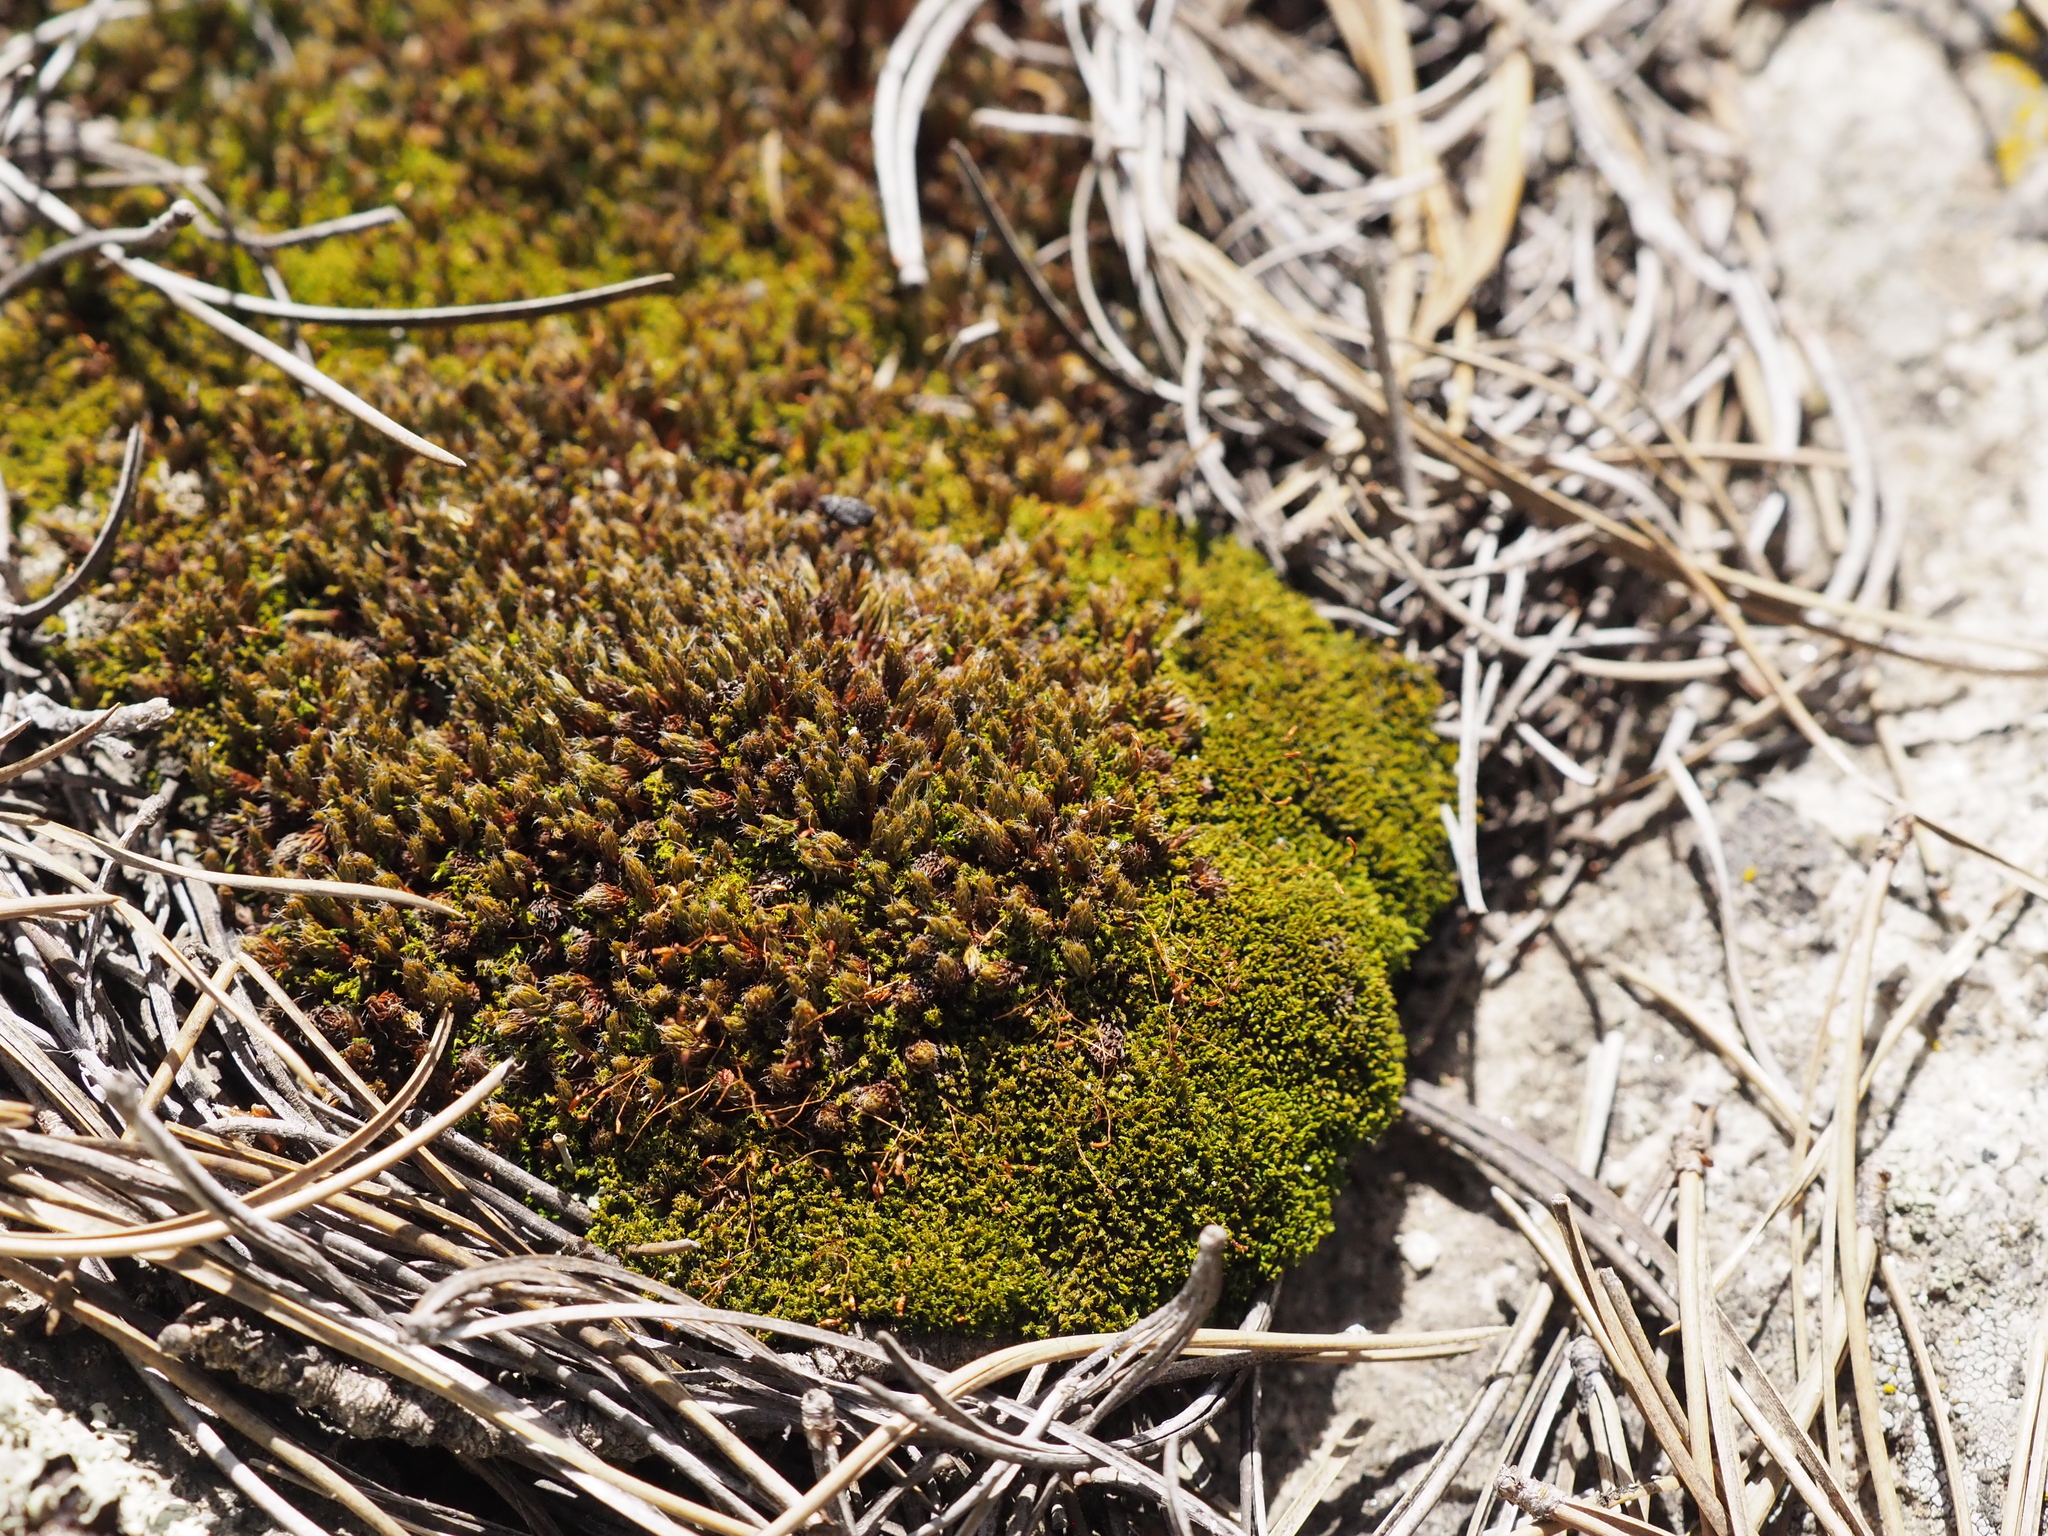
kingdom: Plantae
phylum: Bryophyta
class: Polytrichopsida
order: Polytrichales
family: Polytrichaceae
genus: Polytrichum
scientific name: Polytrichum piliferum
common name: Bristly haircap
